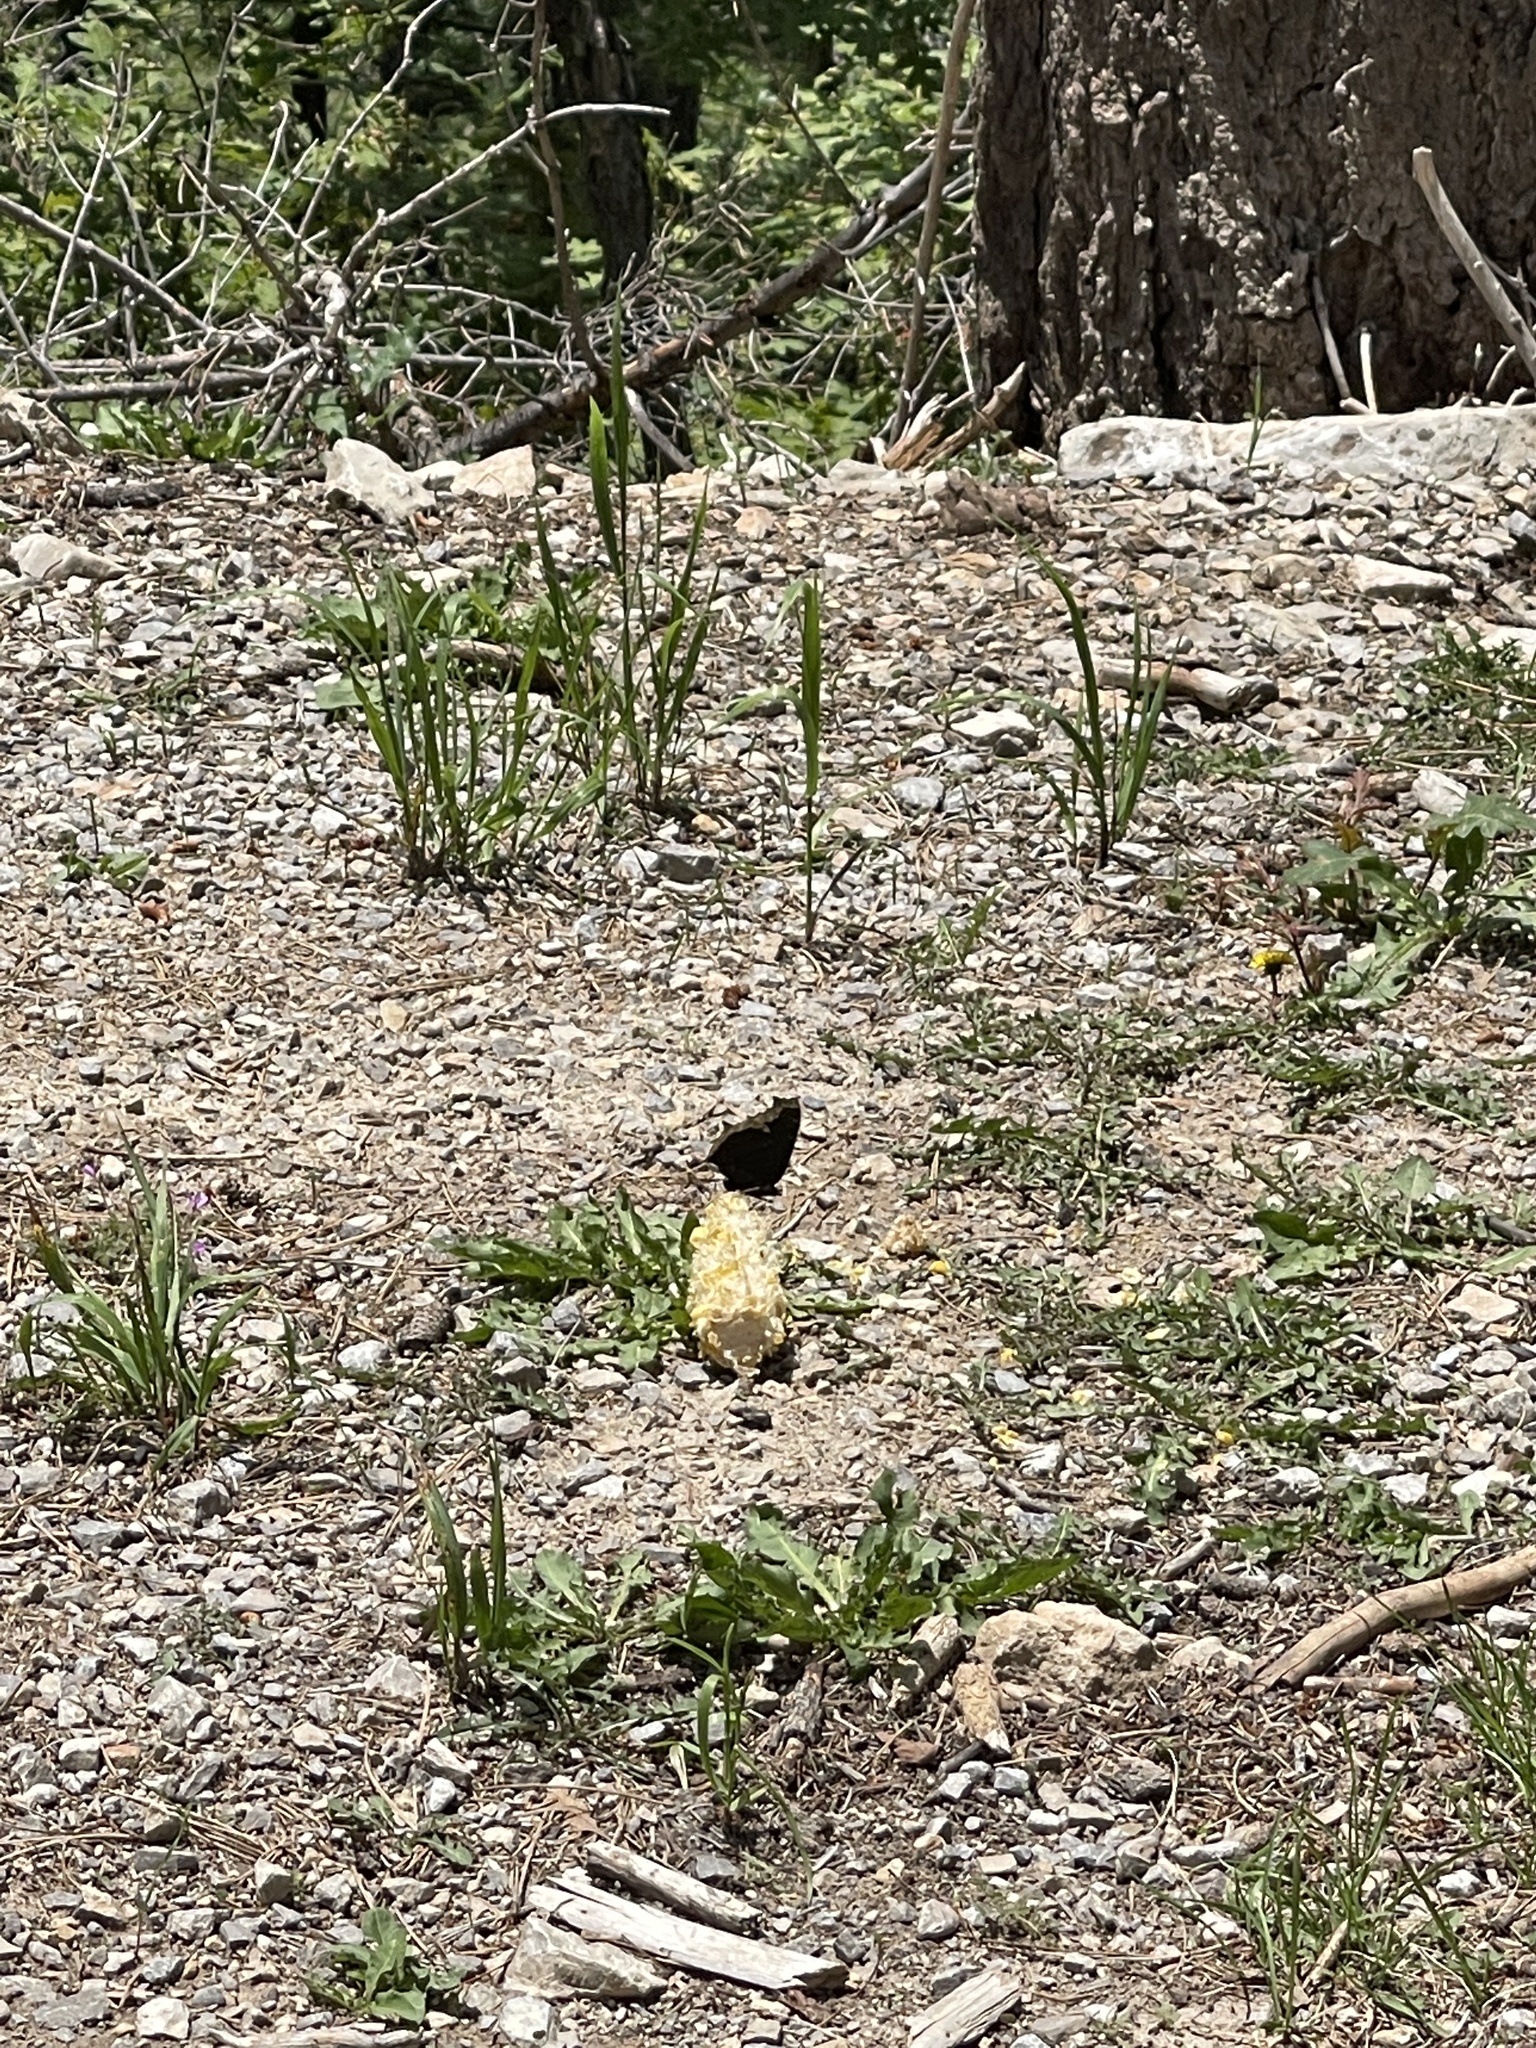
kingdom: Animalia
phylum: Arthropoda
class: Insecta
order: Lepidoptera
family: Nymphalidae
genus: Nymphalis
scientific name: Nymphalis antiopa
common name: Camberwell beauty
